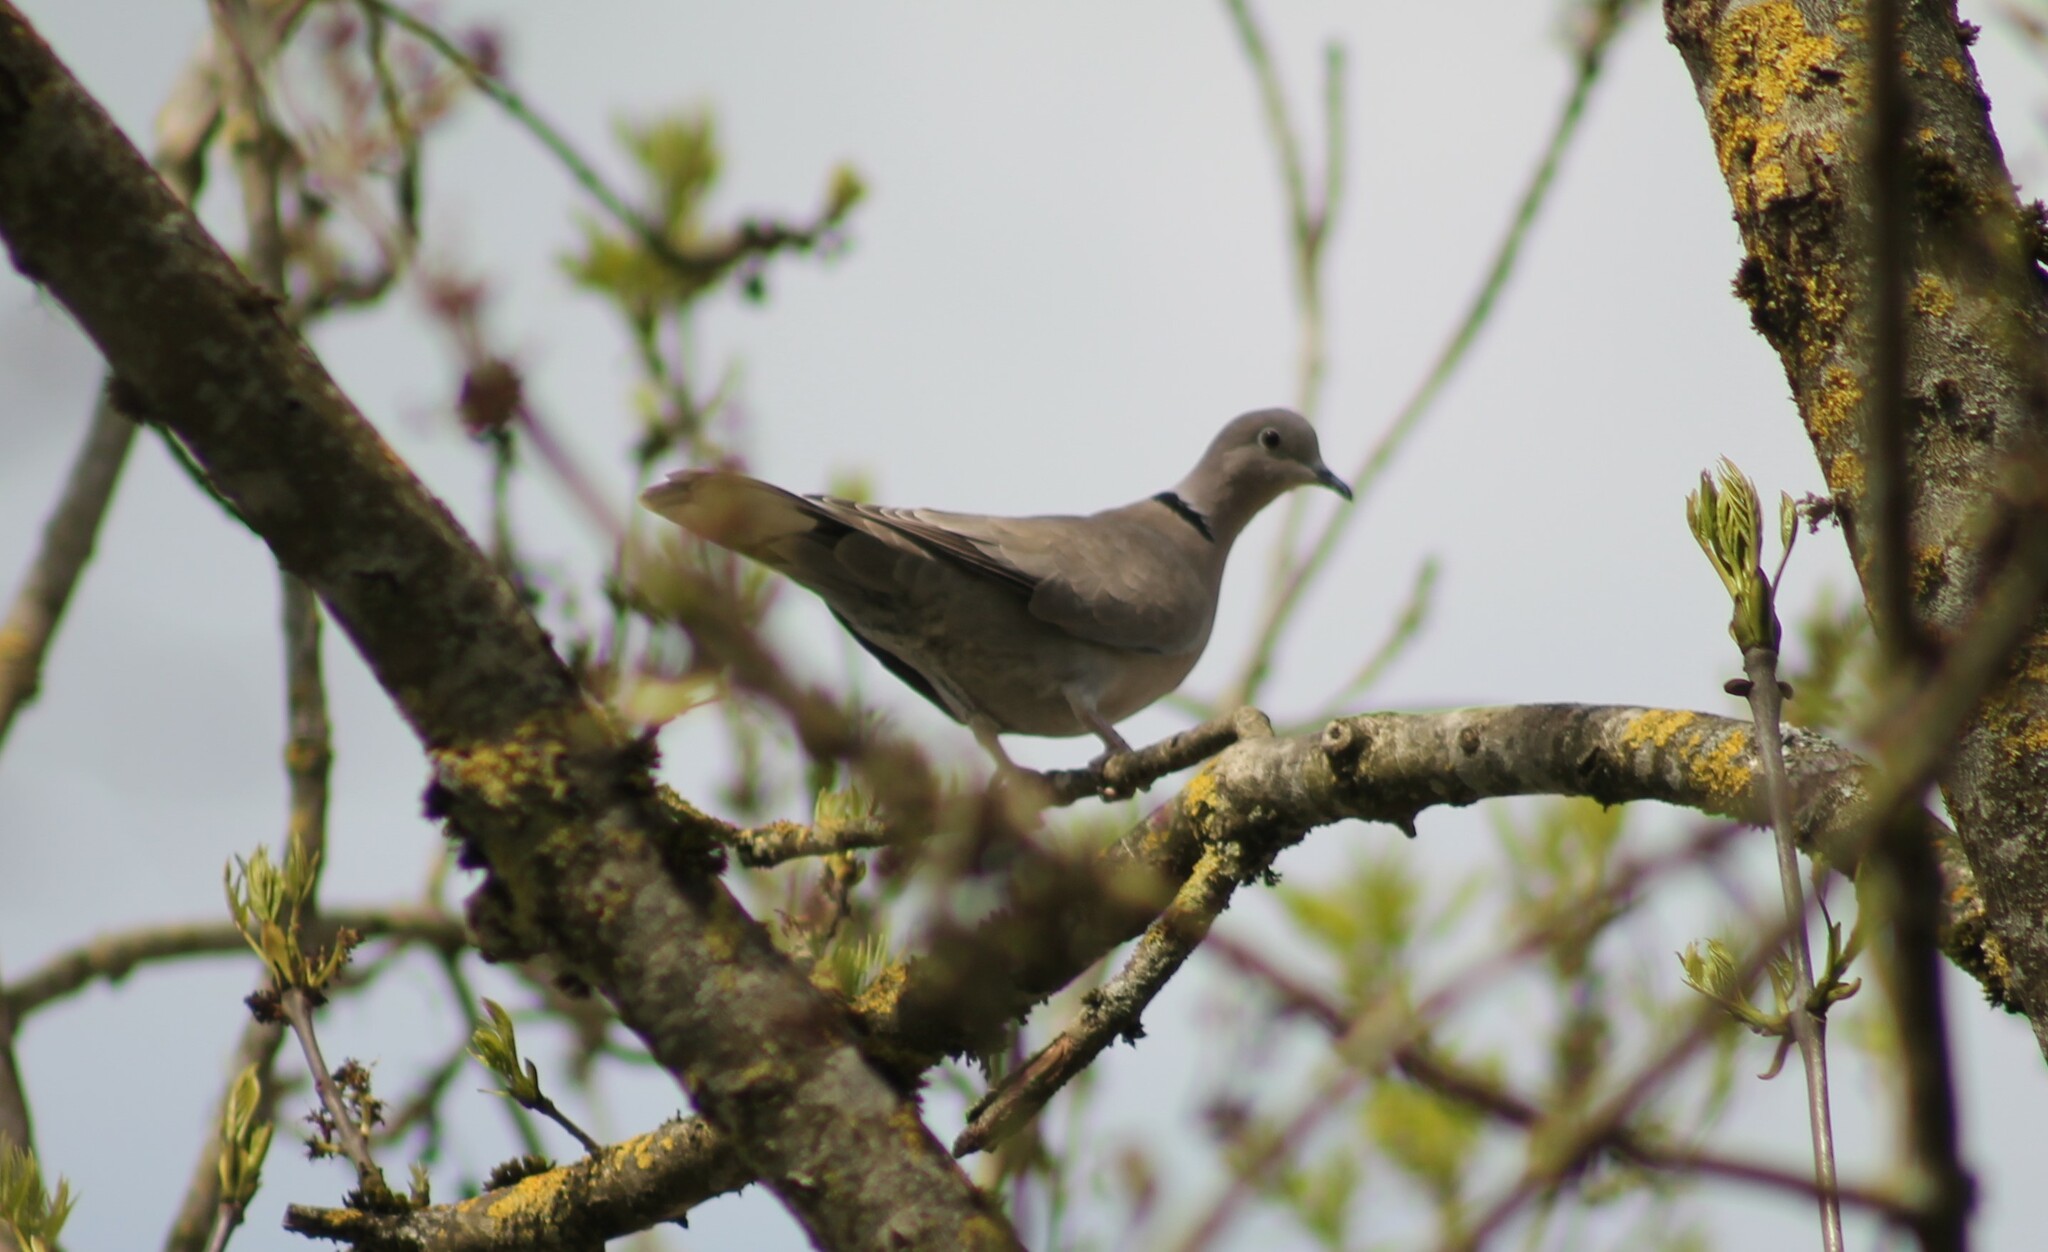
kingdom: Animalia
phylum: Chordata
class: Aves
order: Columbiformes
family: Columbidae
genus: Streptopelia
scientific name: Streptopelia decaocto
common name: Eurasian collared dove
